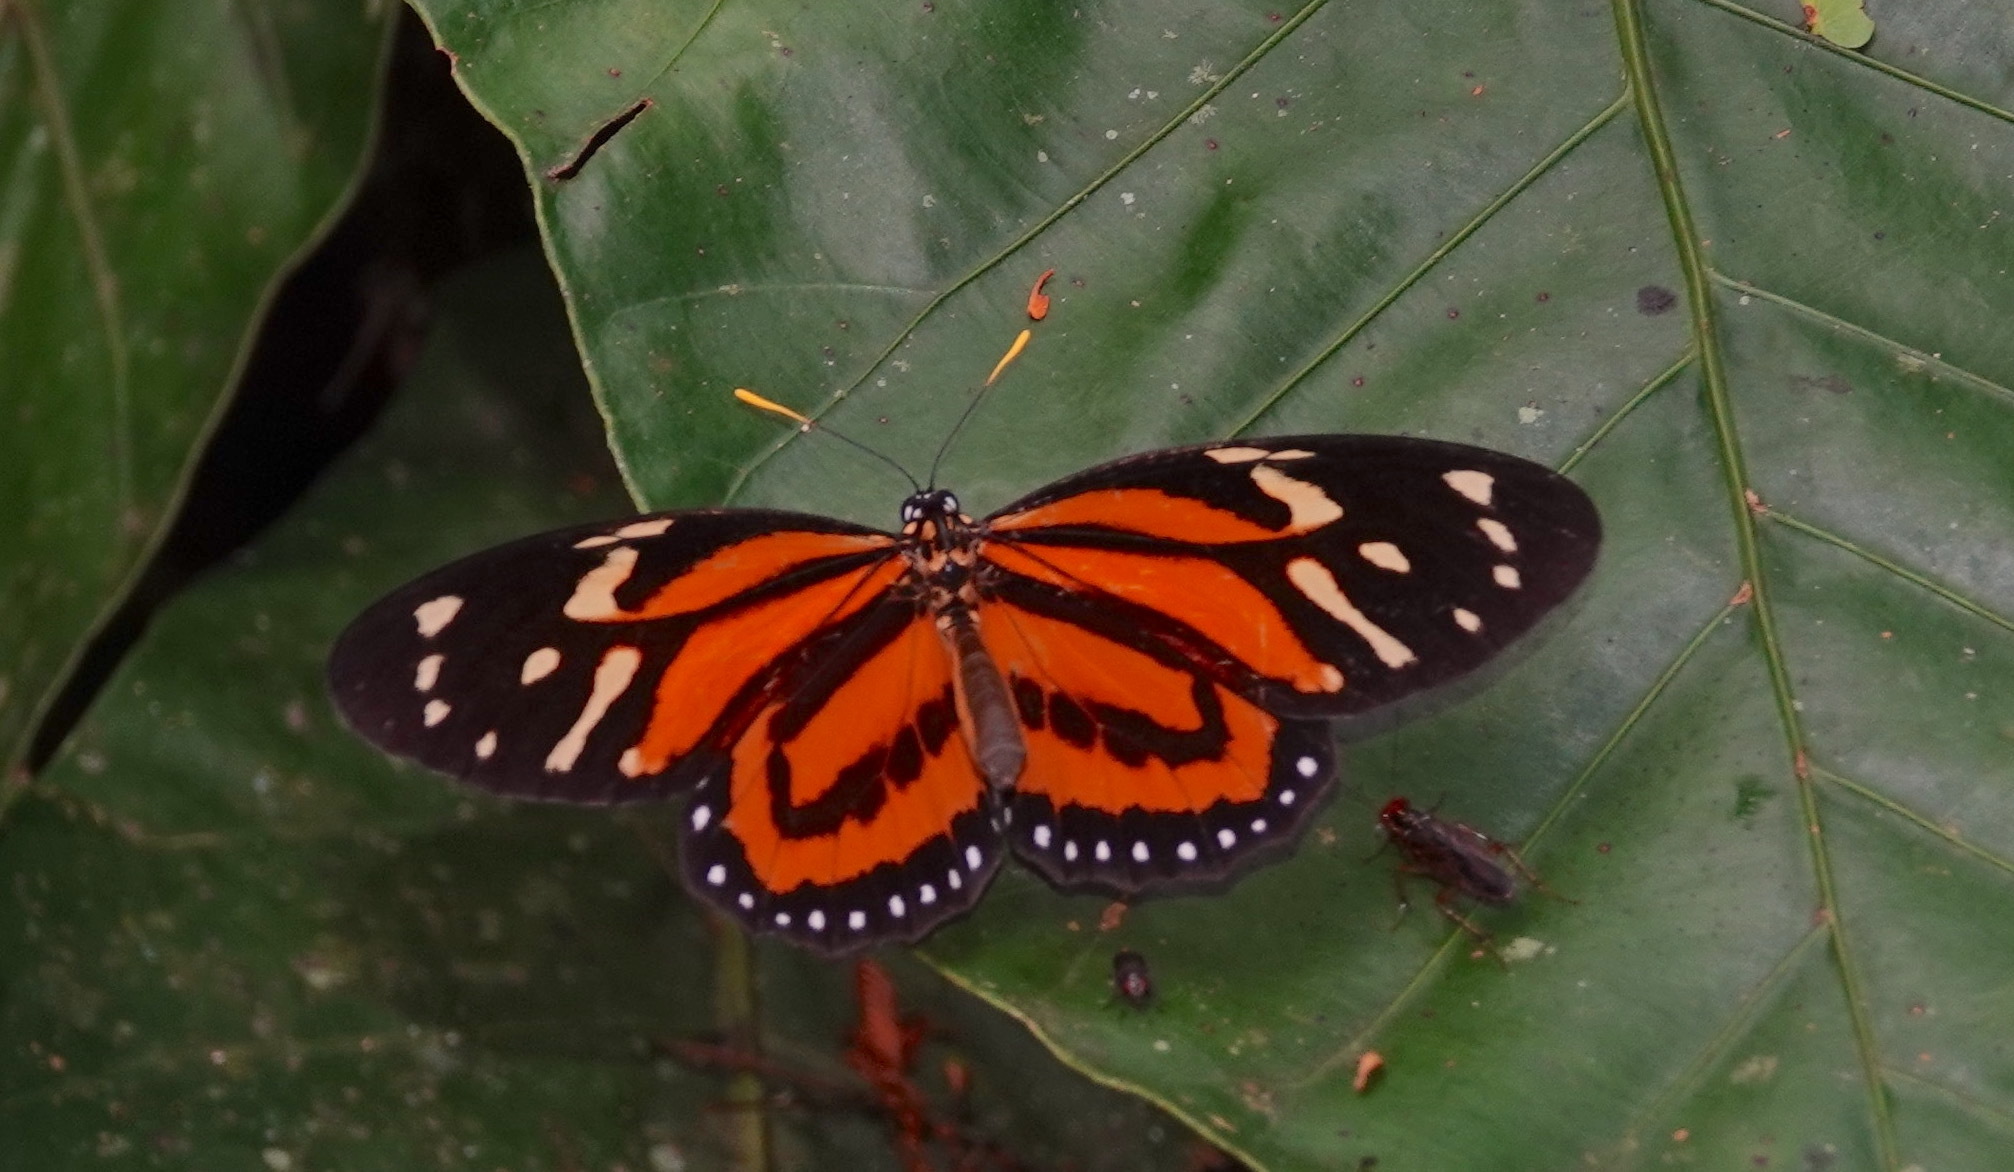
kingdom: Animalia
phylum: Arthropoda
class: Insecta
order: Lepidoptera
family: Nymphalidae
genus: Lycorea
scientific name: Lycorea cleobaea
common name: Tiger mimic-queen
